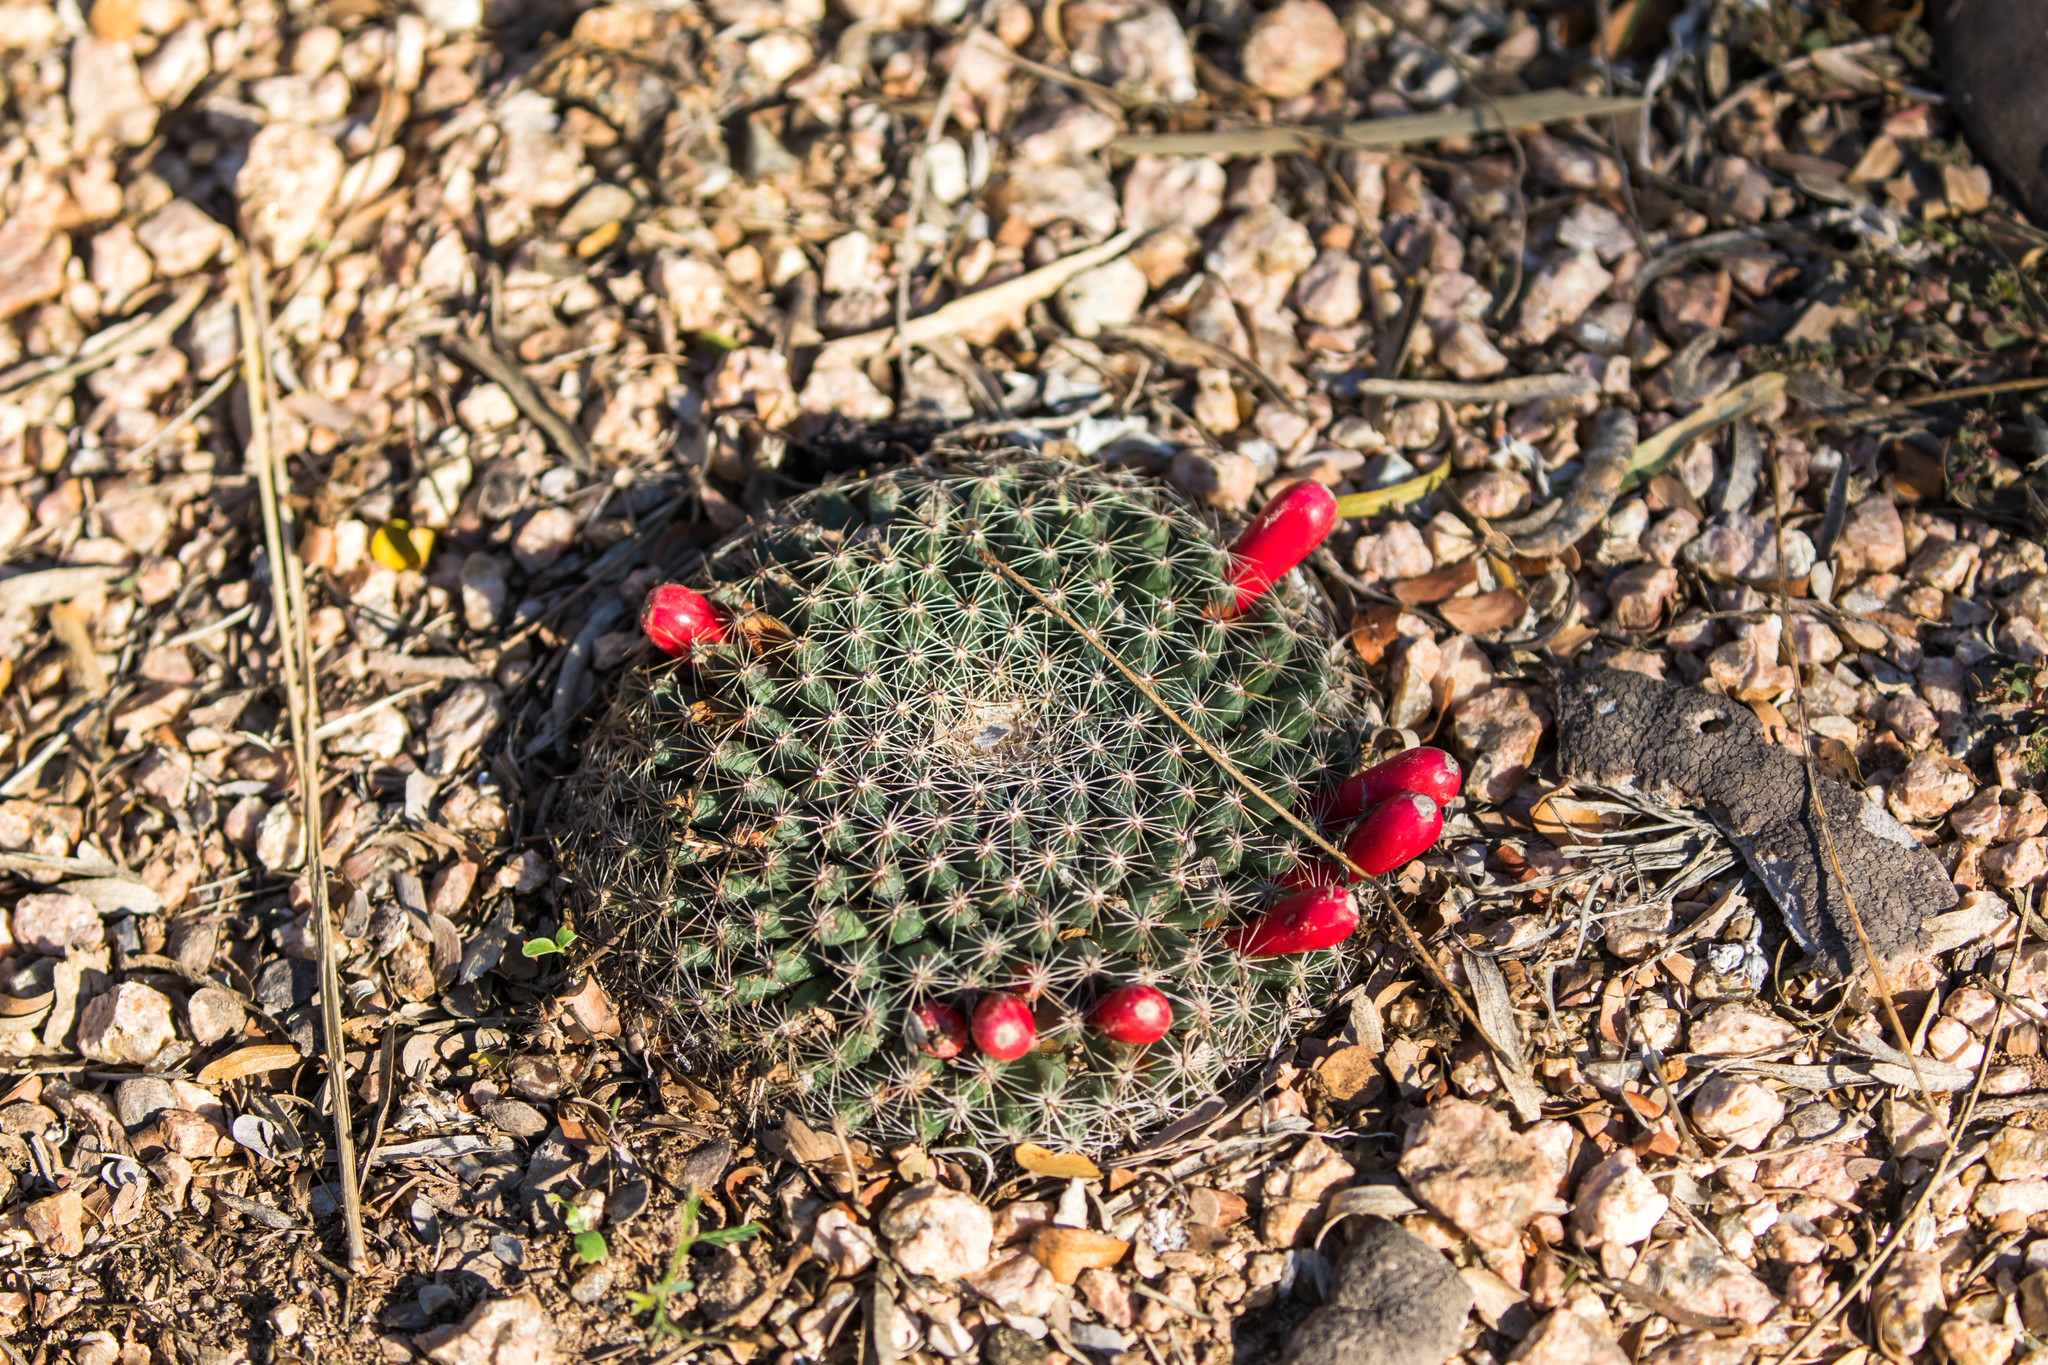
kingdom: Plantae
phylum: Tracheophyta
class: Magnoliopsida
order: Caryophyllales
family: Cactaceae
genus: Mammillaria
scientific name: Mammillaria heyderi
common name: Little nipple cactus
